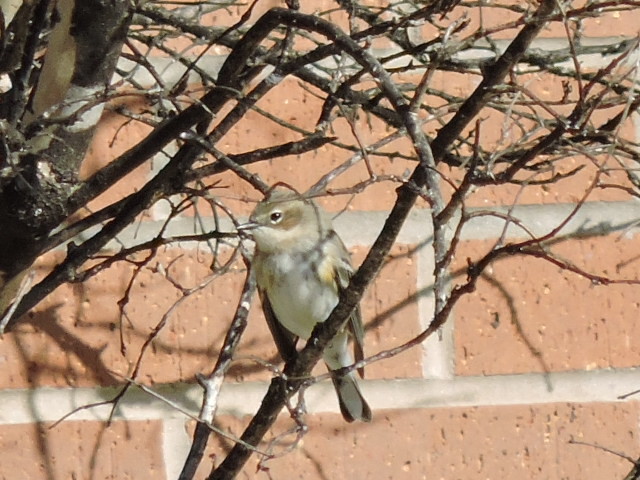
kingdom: Animalia
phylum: Chordata
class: Aves
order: Passeriformes
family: Parulidae
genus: Setophaga
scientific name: Setophaga coronata
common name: Myrtle warbler
